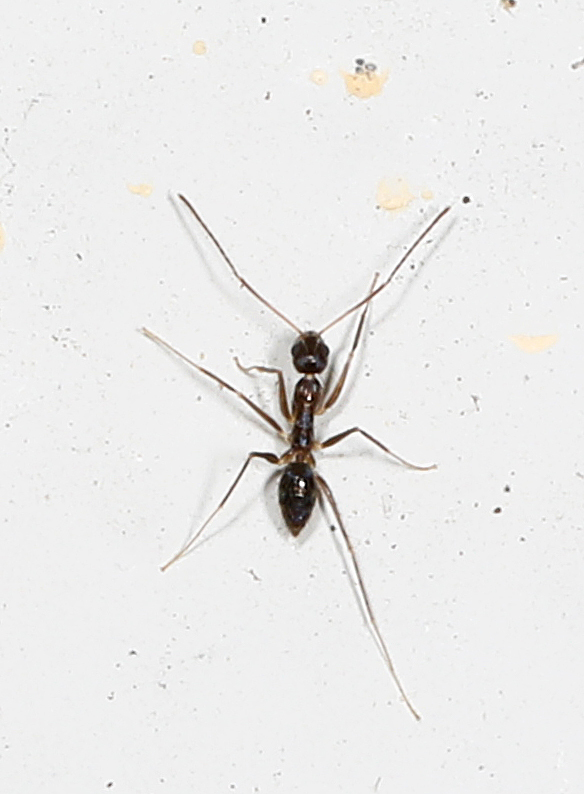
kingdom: Animalia
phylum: Arthropoda
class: Insecta
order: Hymenoptera
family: Formicidae
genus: Paratrechina
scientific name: Paratrechina longicornis
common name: Longhorned crazy ant
